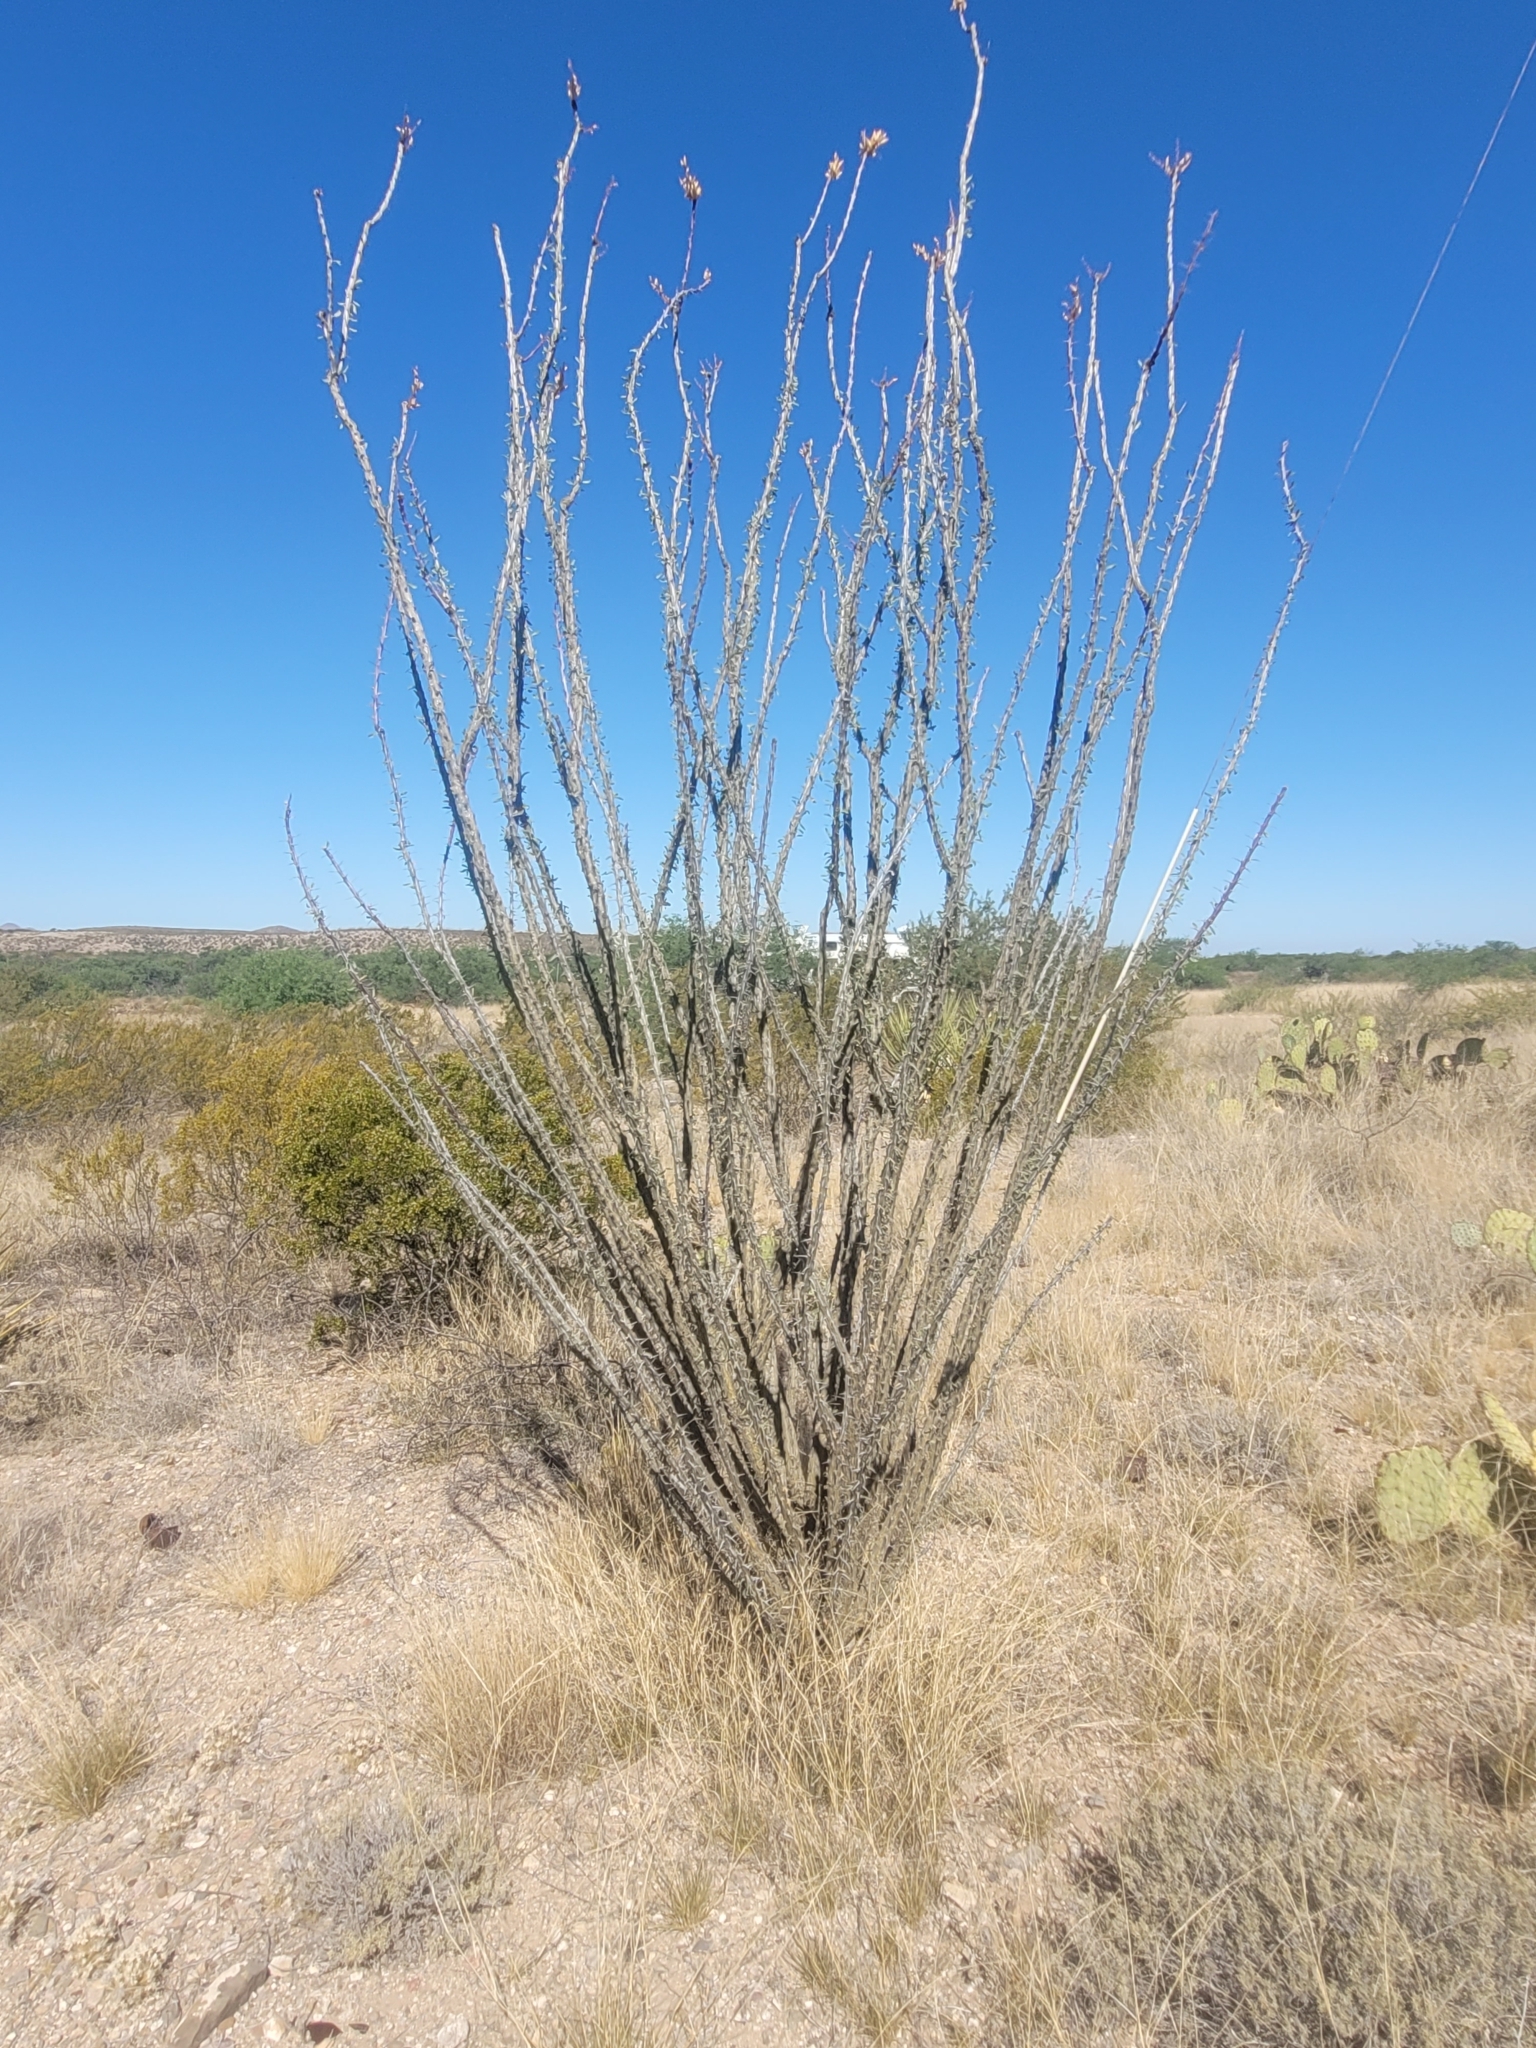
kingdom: Plantae
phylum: Tracheophyta
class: Magnoliopsida
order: Ericales
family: Fouquieriaceae
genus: Fouquieria
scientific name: Fouquieria splendens
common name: Vine-cactus
